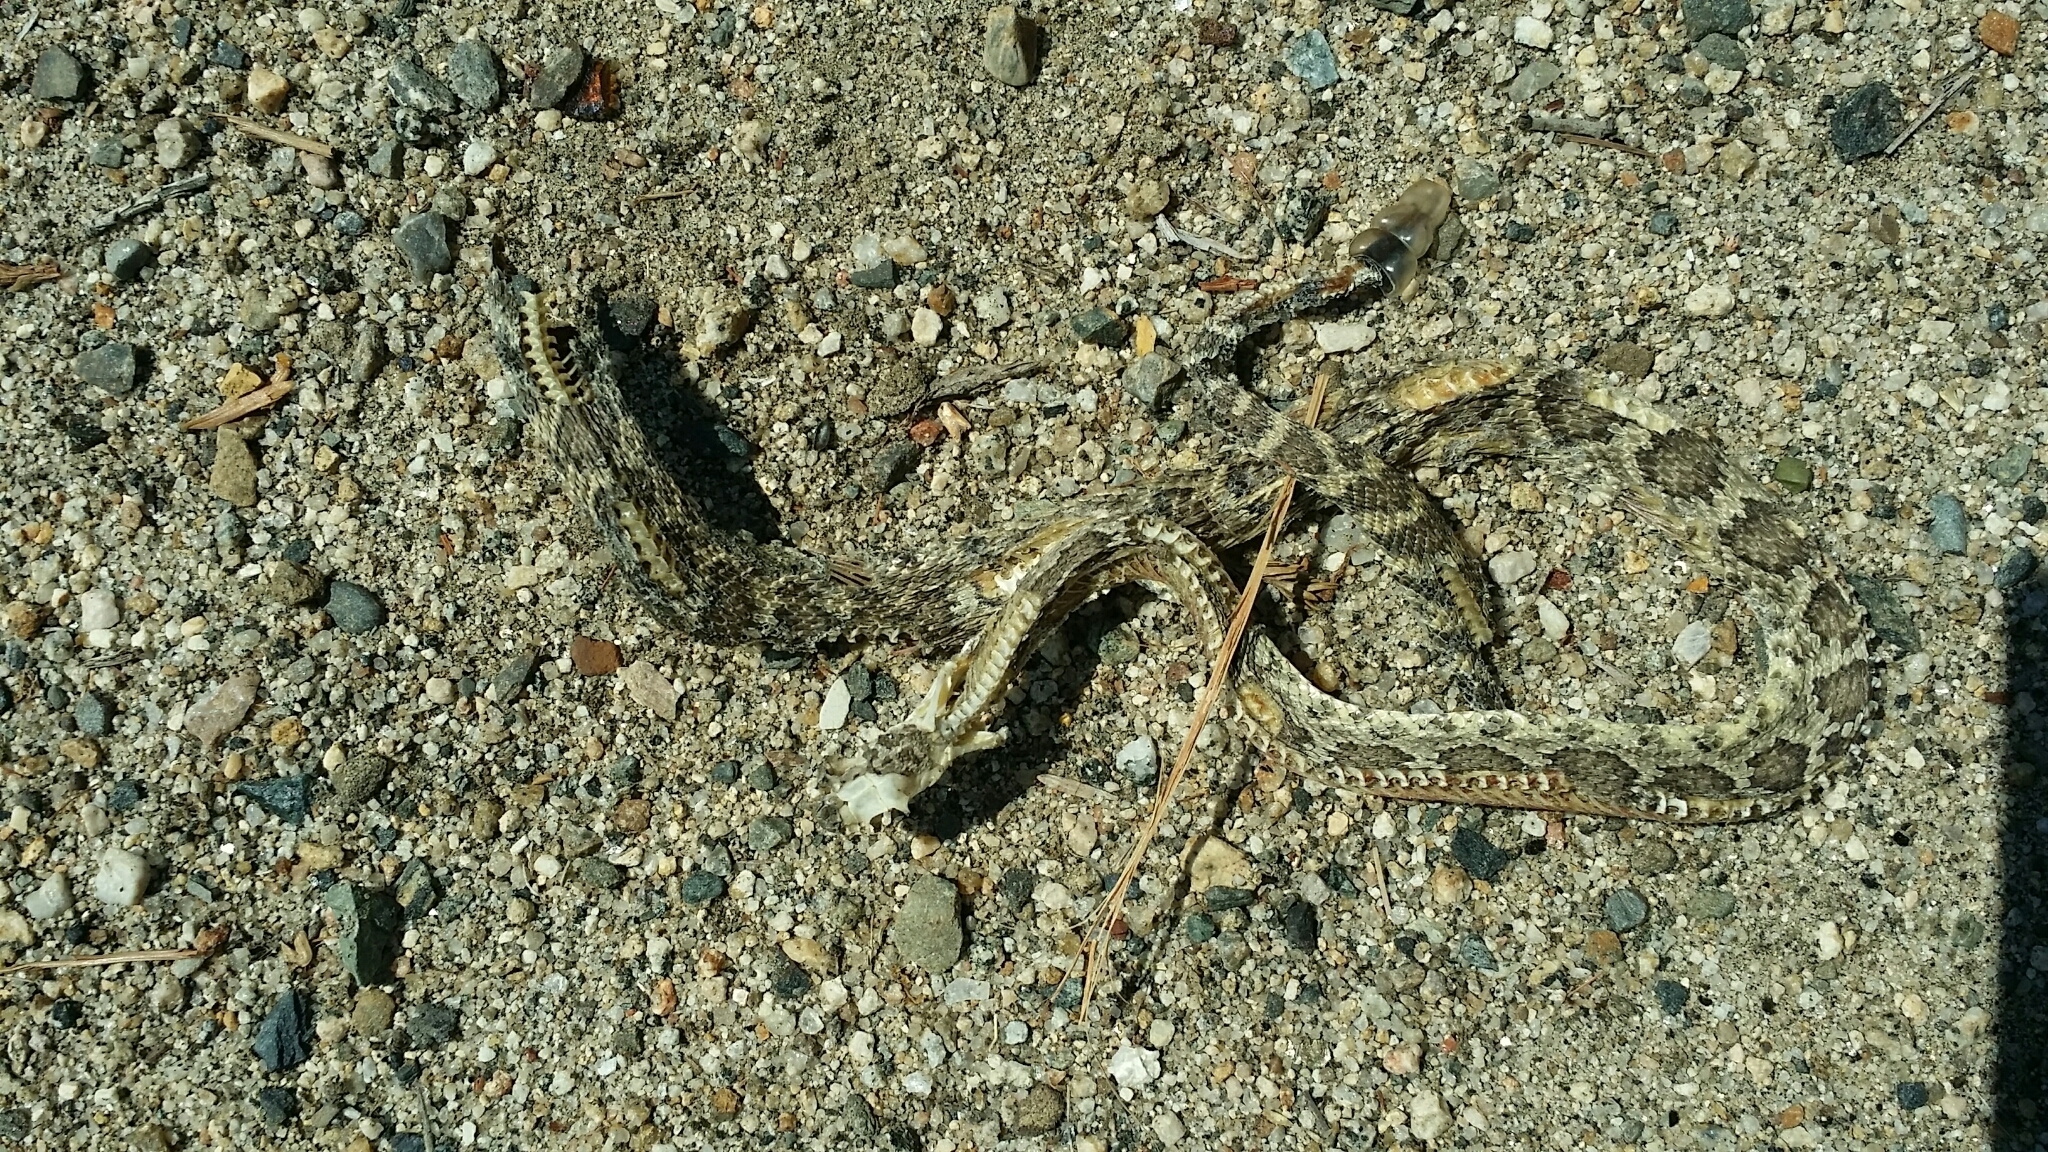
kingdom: Animalia
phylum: Chordata
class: Squamata
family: Viperidae
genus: Crotalus
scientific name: Crotalus oreganus
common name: Abyssus
